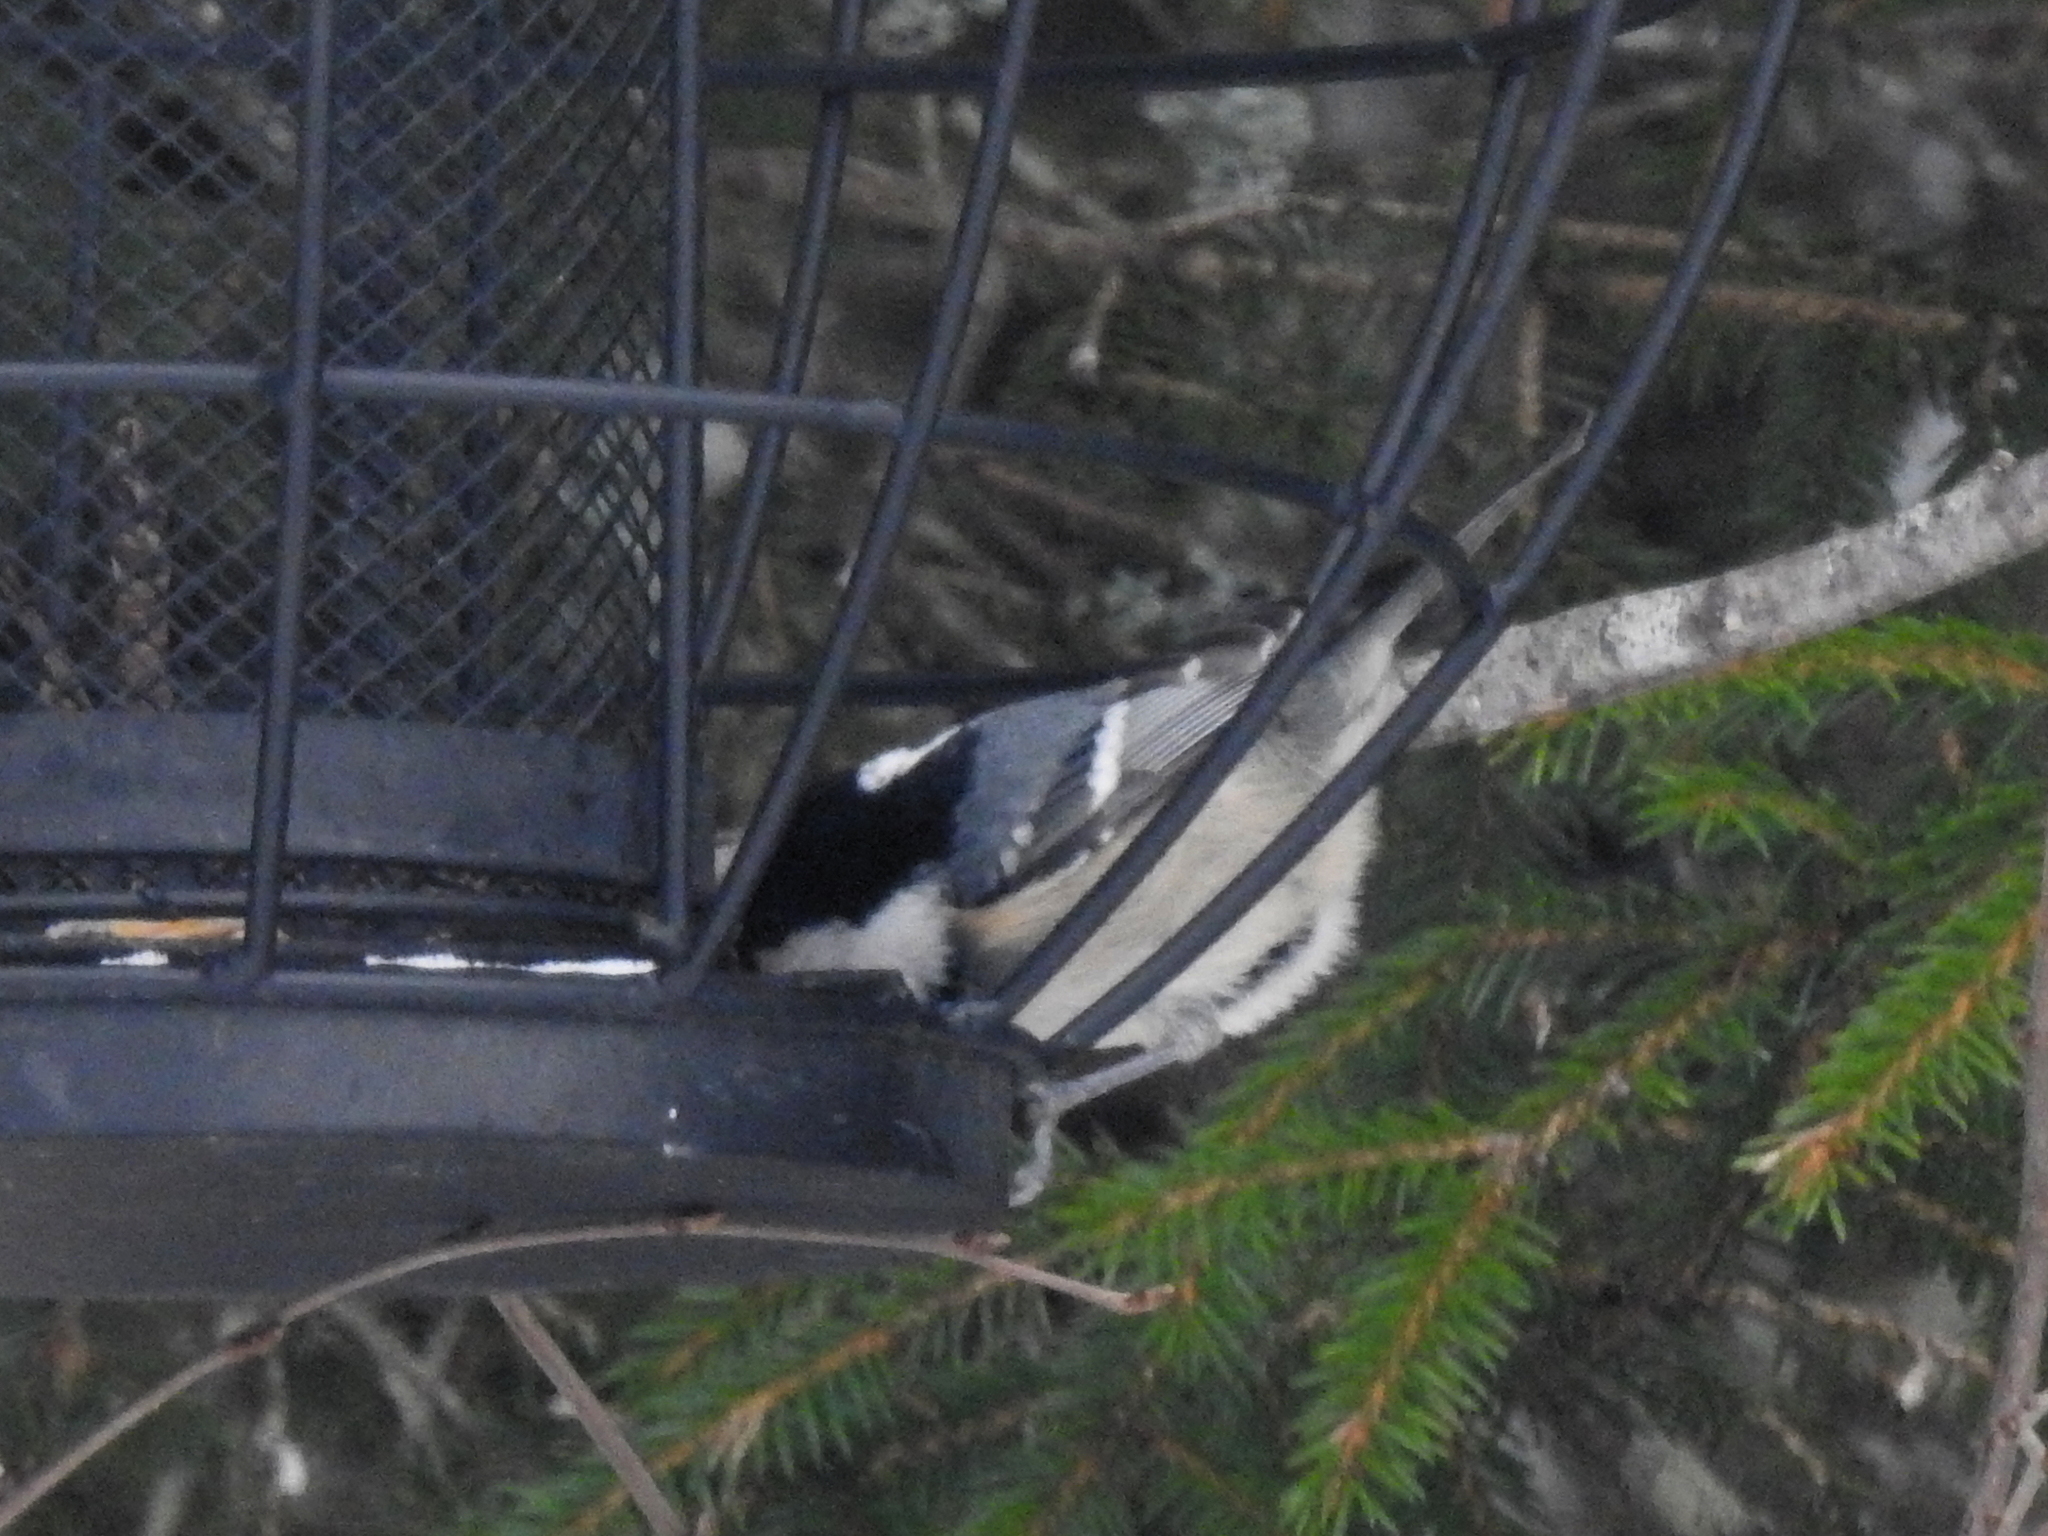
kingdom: Animalia
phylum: Chordata
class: Aves
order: Passeriformes
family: Paridae
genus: Periparus
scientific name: Periparus ater
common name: Coal tit
